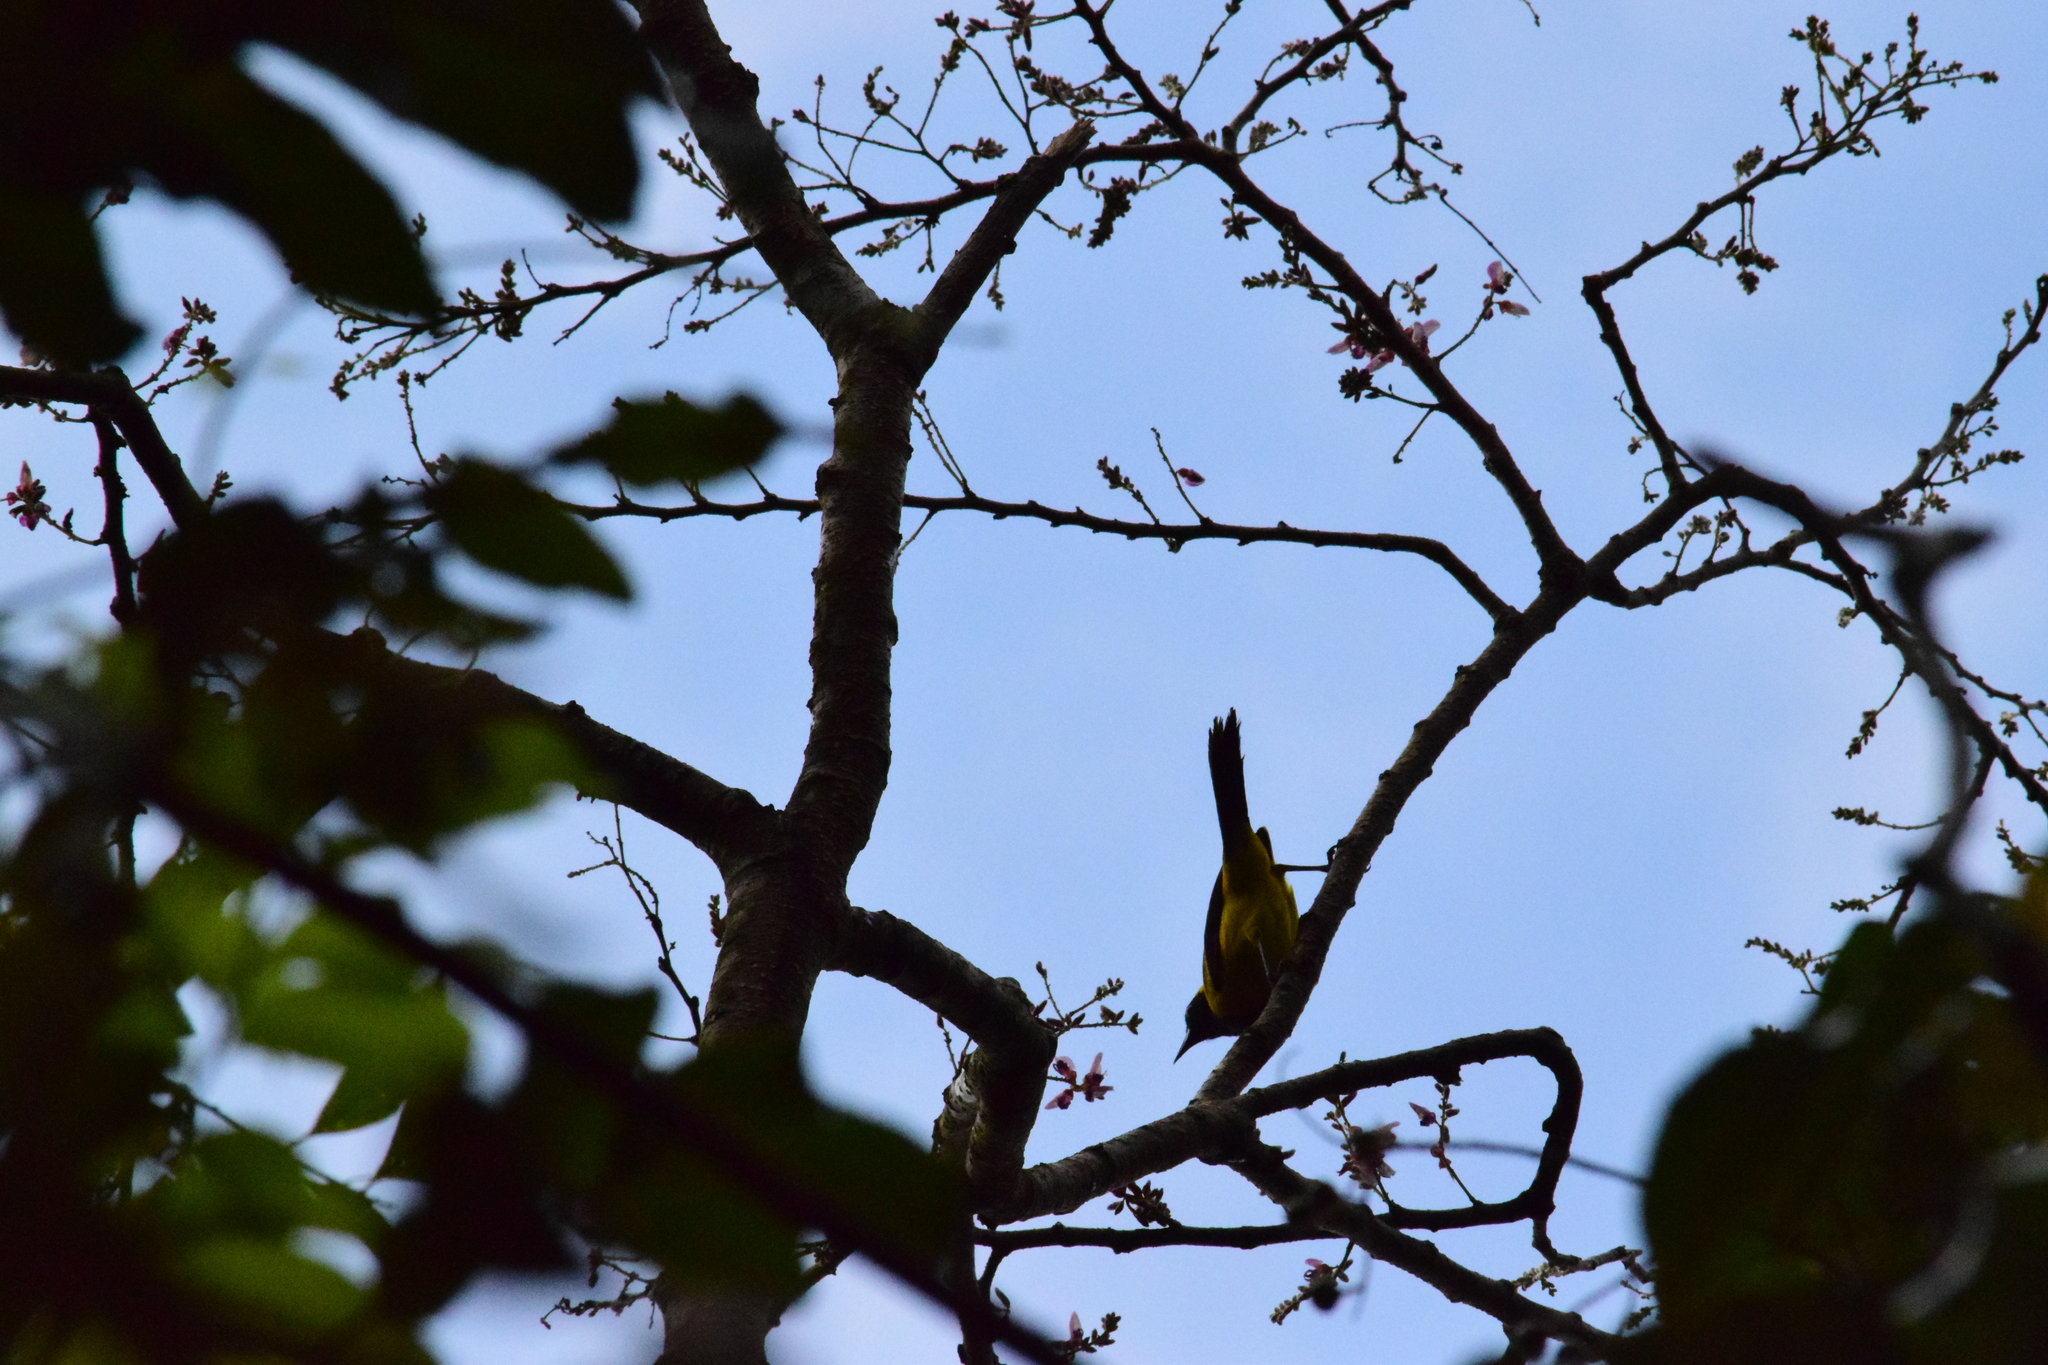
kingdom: Animalia
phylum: Chordata
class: Aves
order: Passeriformes
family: Icteridae
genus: Icterus
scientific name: Icterus chrysater
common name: Yellow-backed oriole
